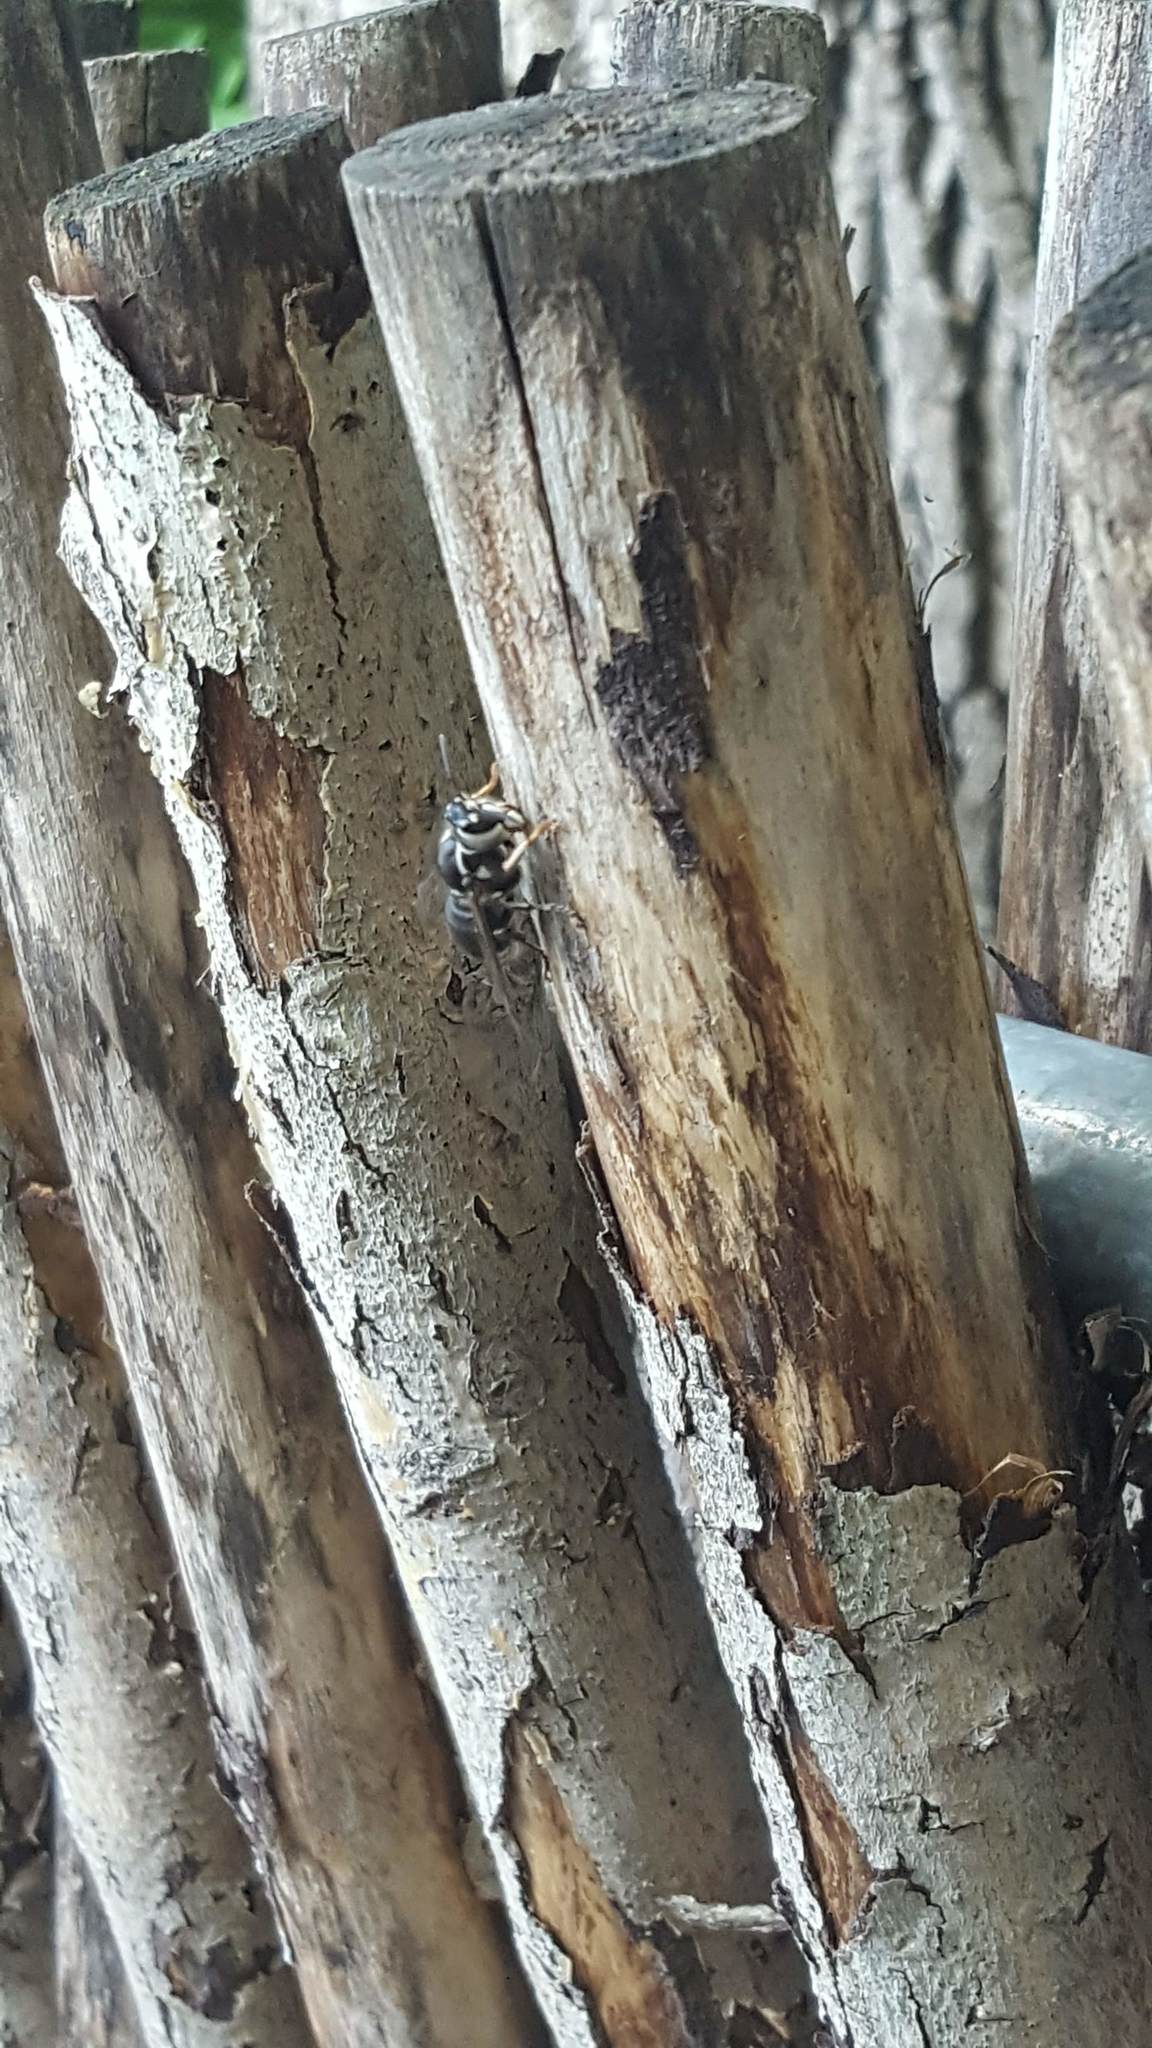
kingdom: Animalia
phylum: Arthropoda
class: Insecta
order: Hymenoptera
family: Vespidae
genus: Dolichovespula
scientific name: Dolichovespula maculata
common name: Bald-faced hornet
